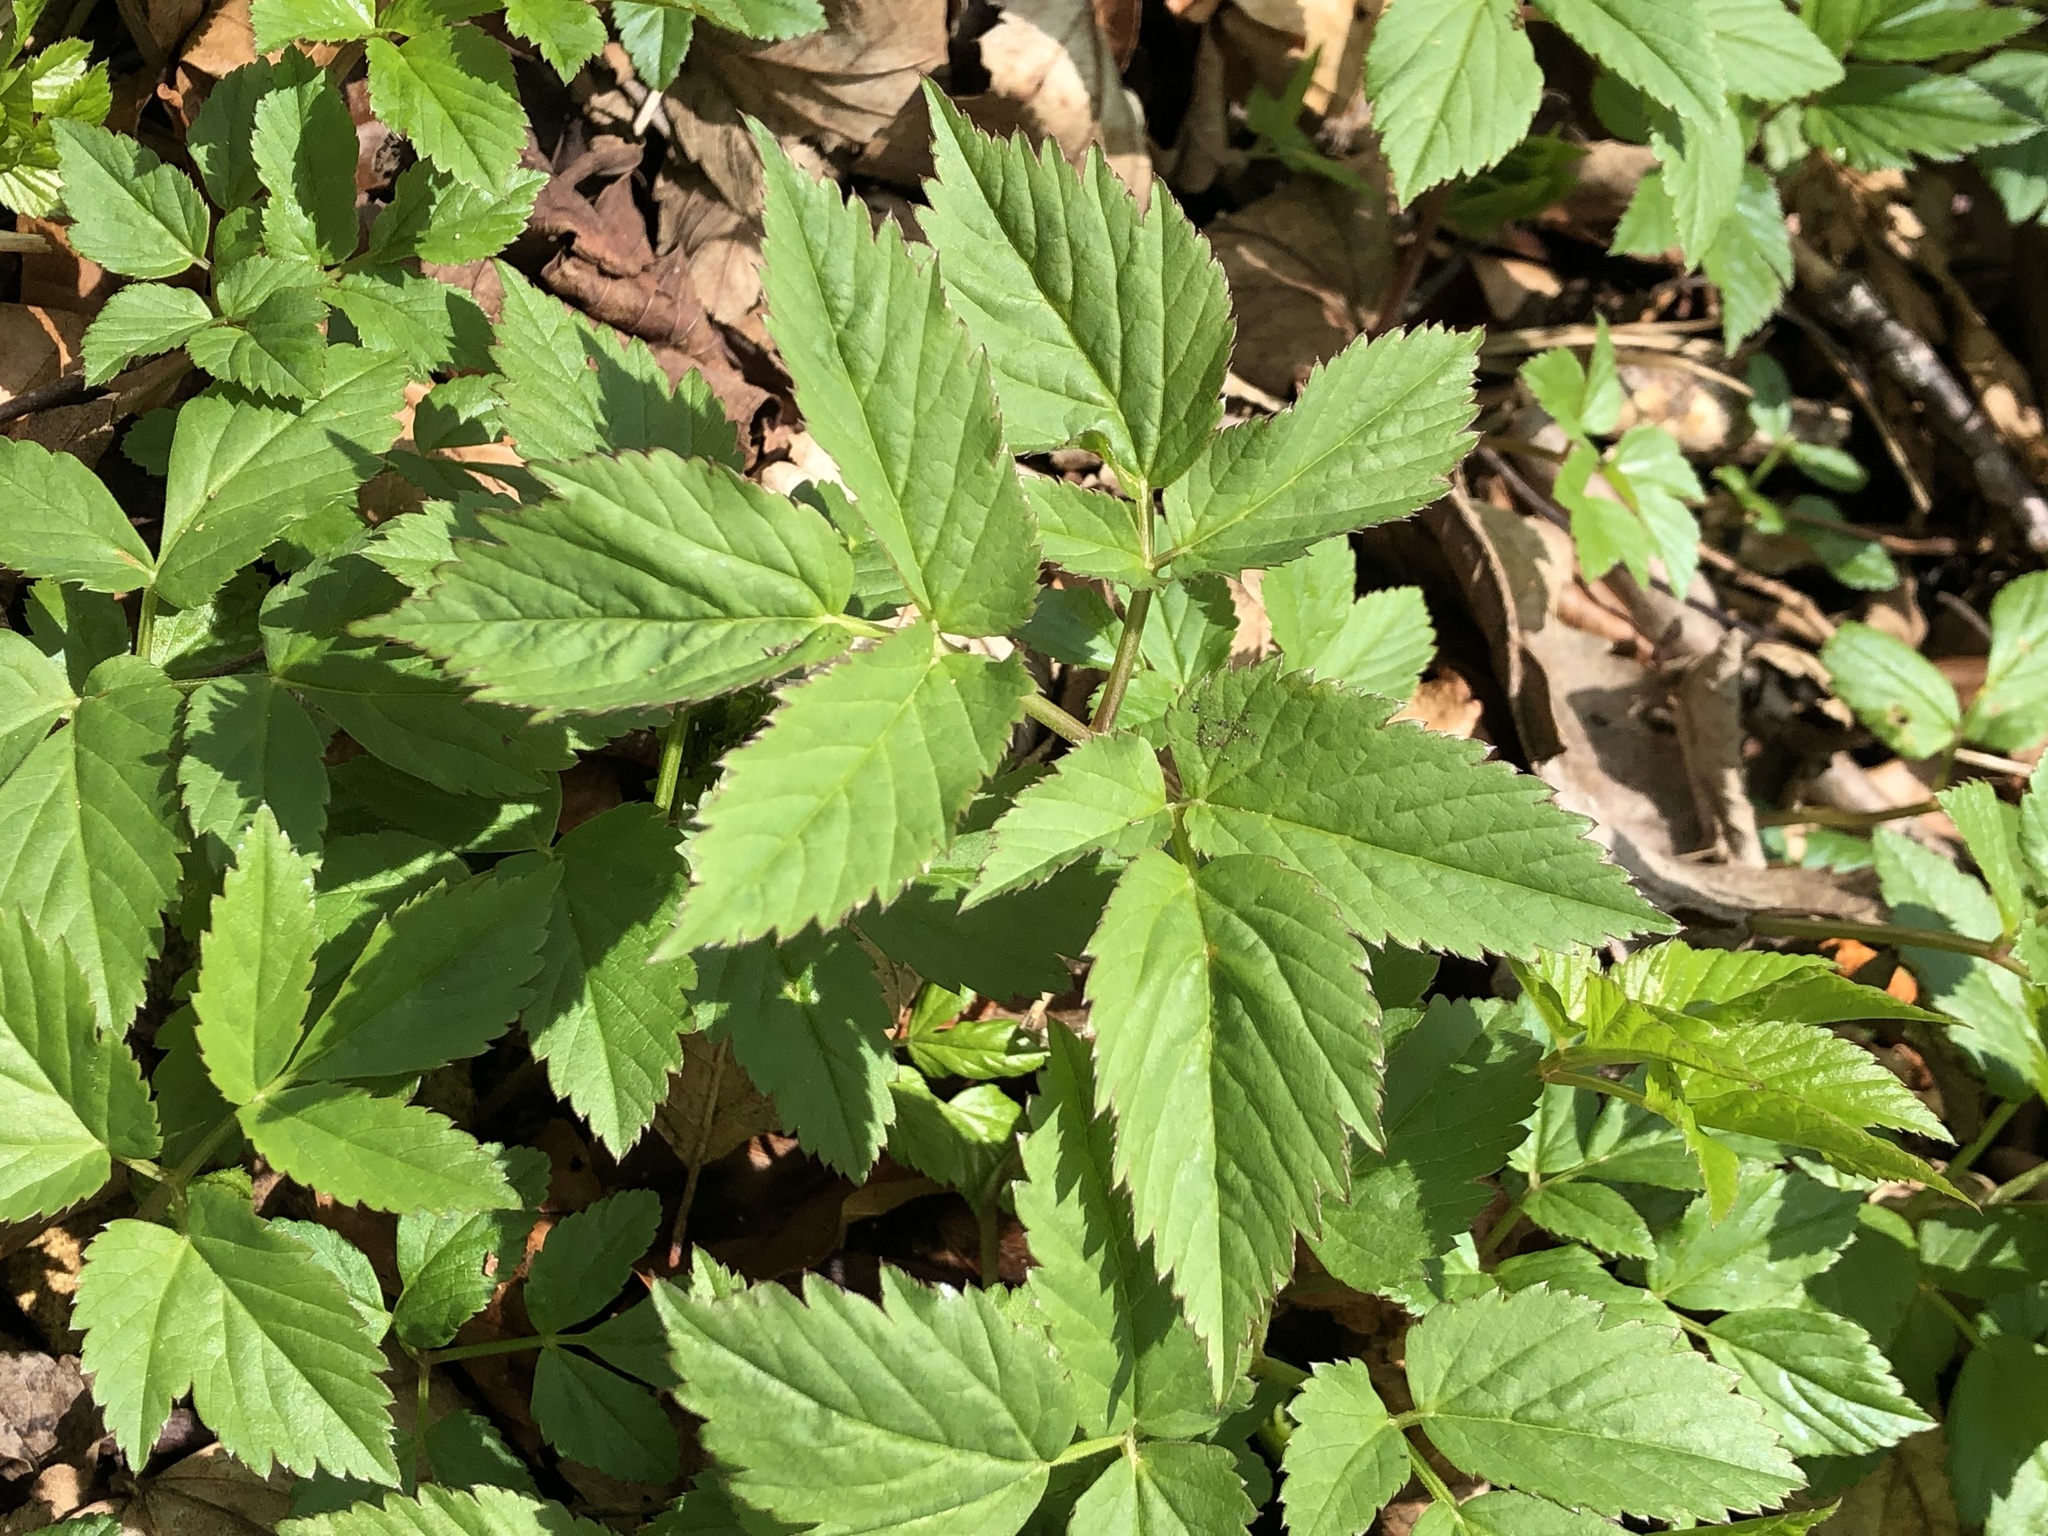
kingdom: Plantae
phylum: Tracheophyta
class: Magnoliopsida
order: Apiales
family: Apiaceae
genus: Aegopodium
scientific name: Aegopodium podagraria
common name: Ground-elder
